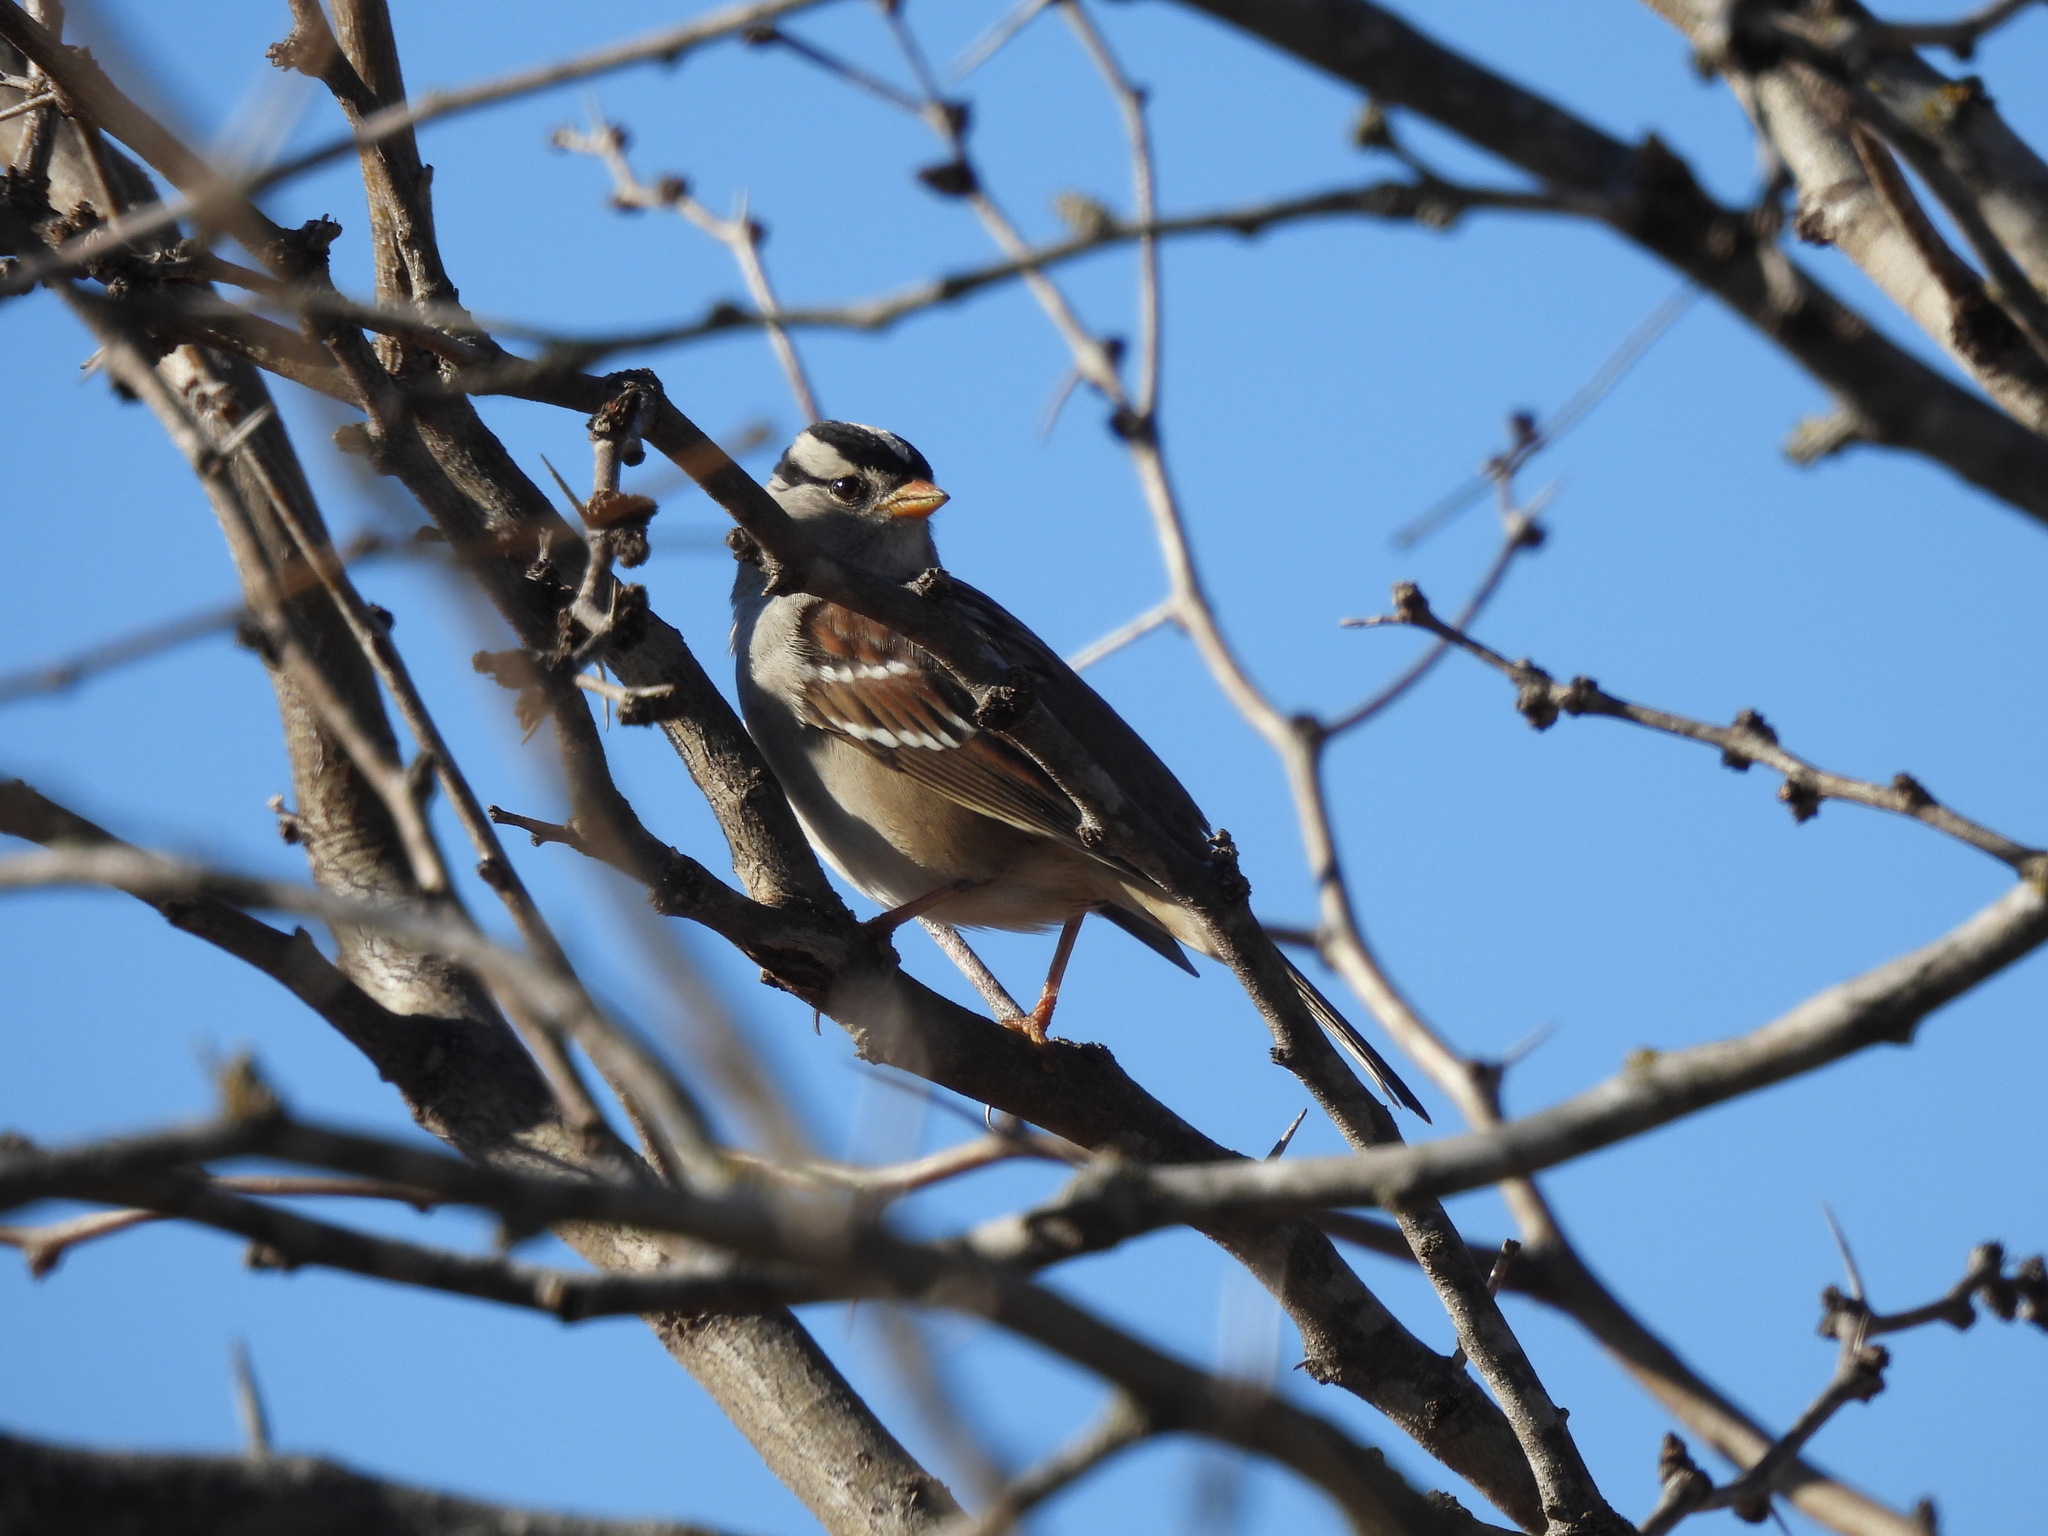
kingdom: Animalia
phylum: Chordata
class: Aves
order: Passeriformes
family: Passerellidae
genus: Zonotrichia
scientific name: Zonotrichia leucophrys
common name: White-crowned sparrow
